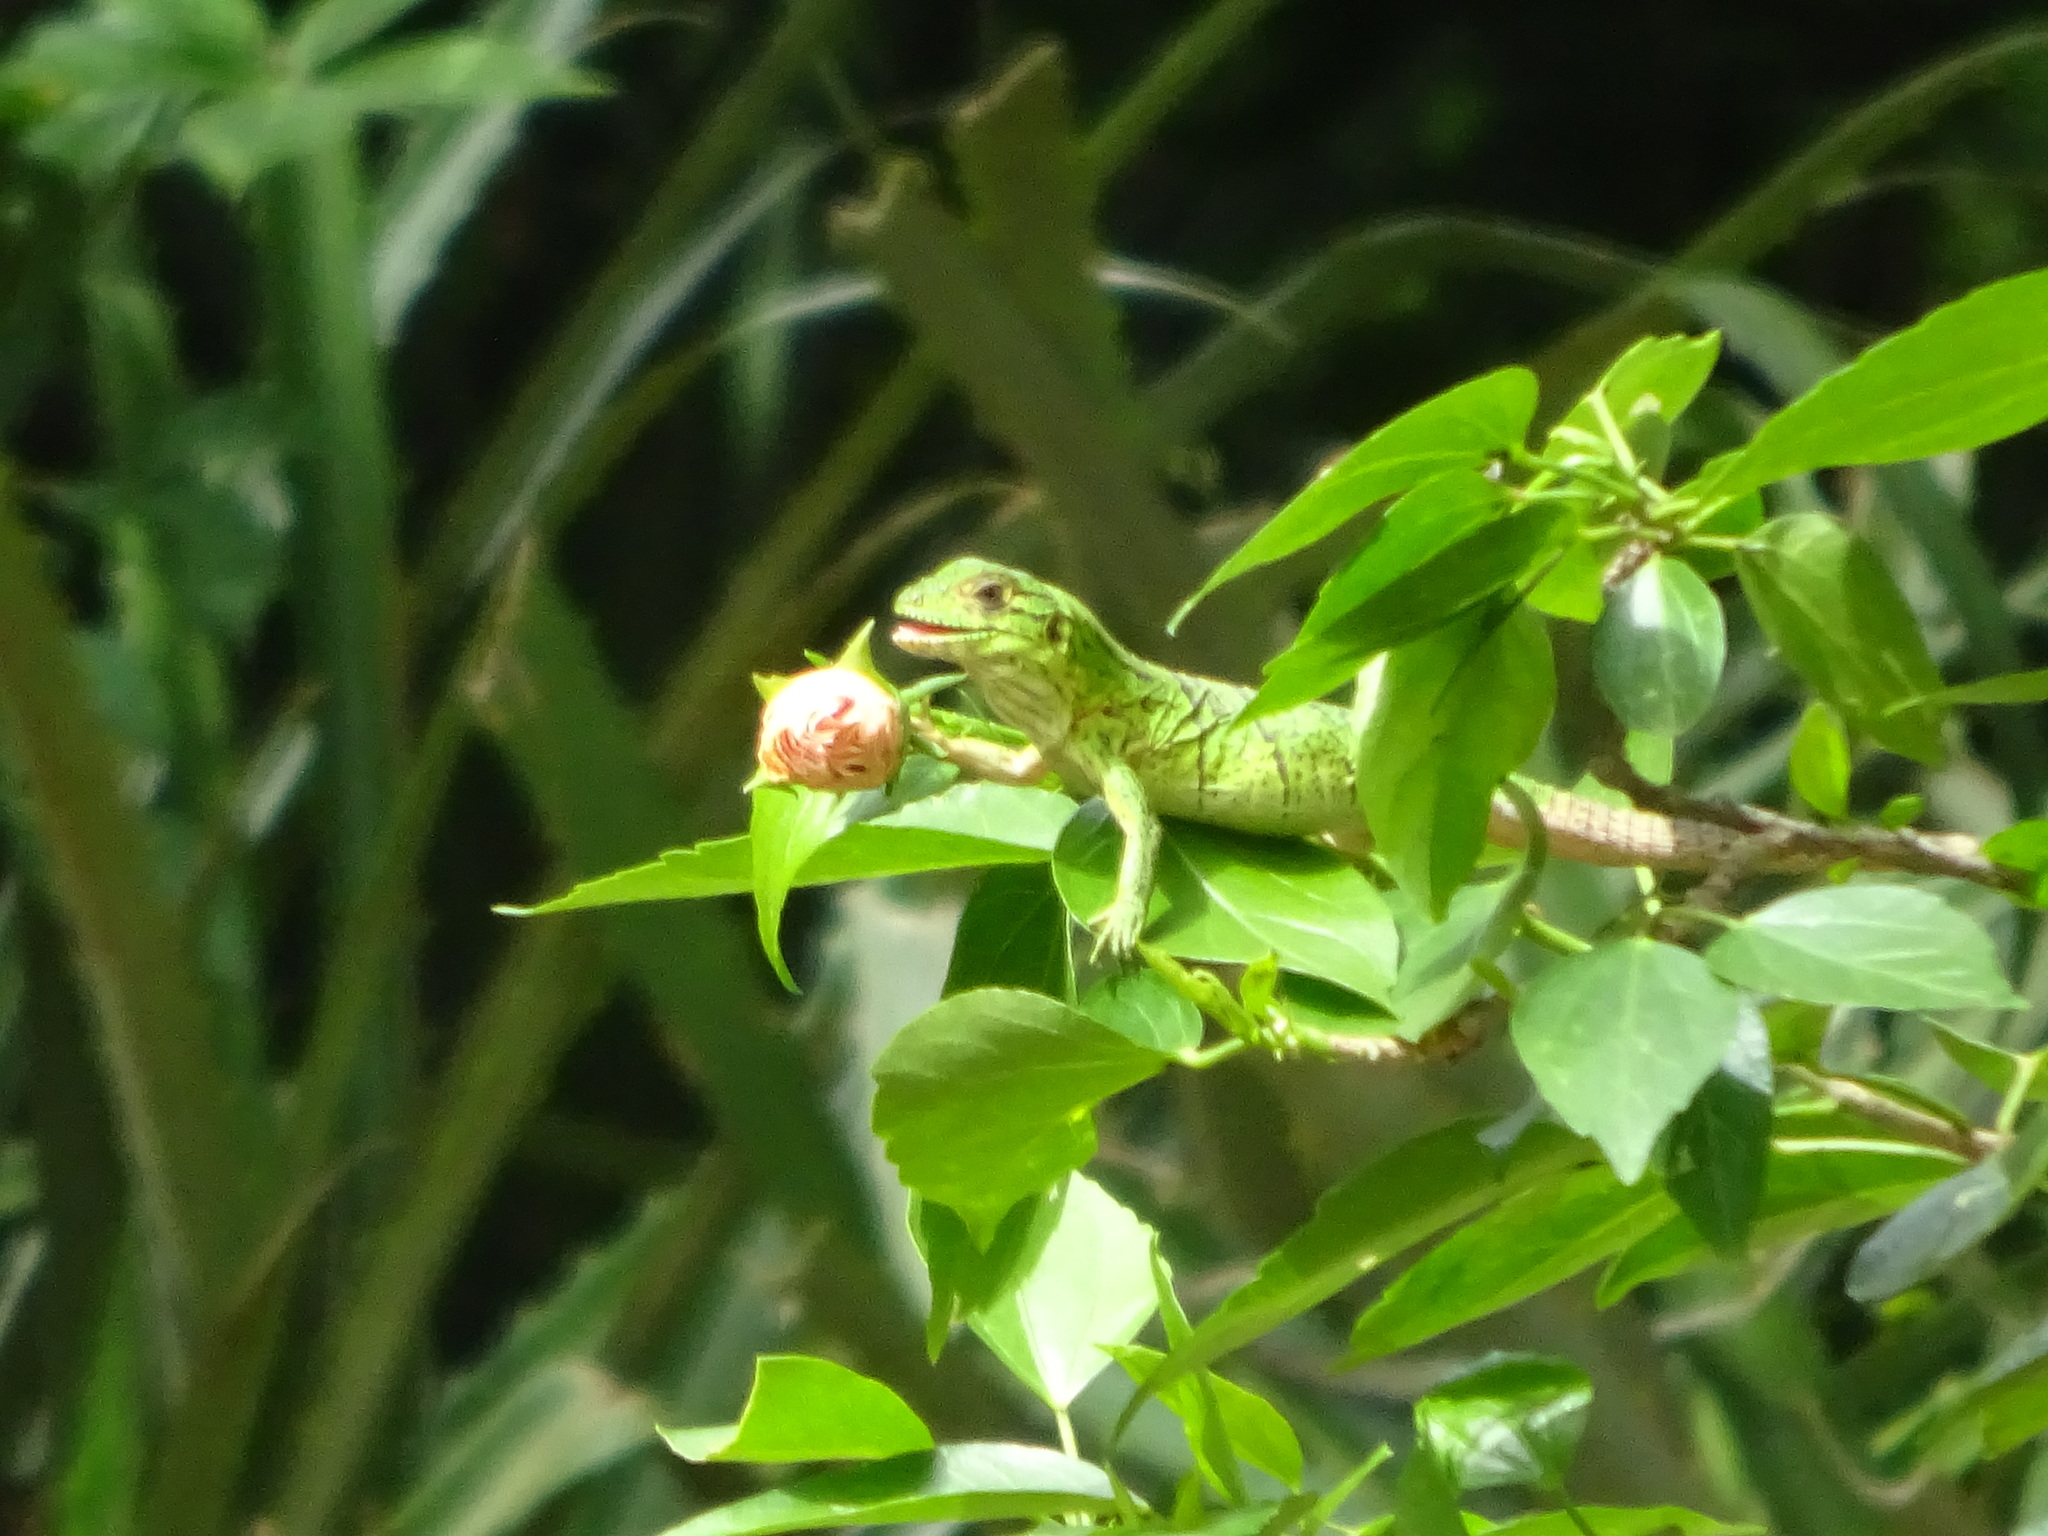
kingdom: Animalia
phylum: Chordata
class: Squamata
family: Iguanidae
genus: Ctenosaura
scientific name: Ctenosaura similis
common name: Black spiny-tailed iguana
